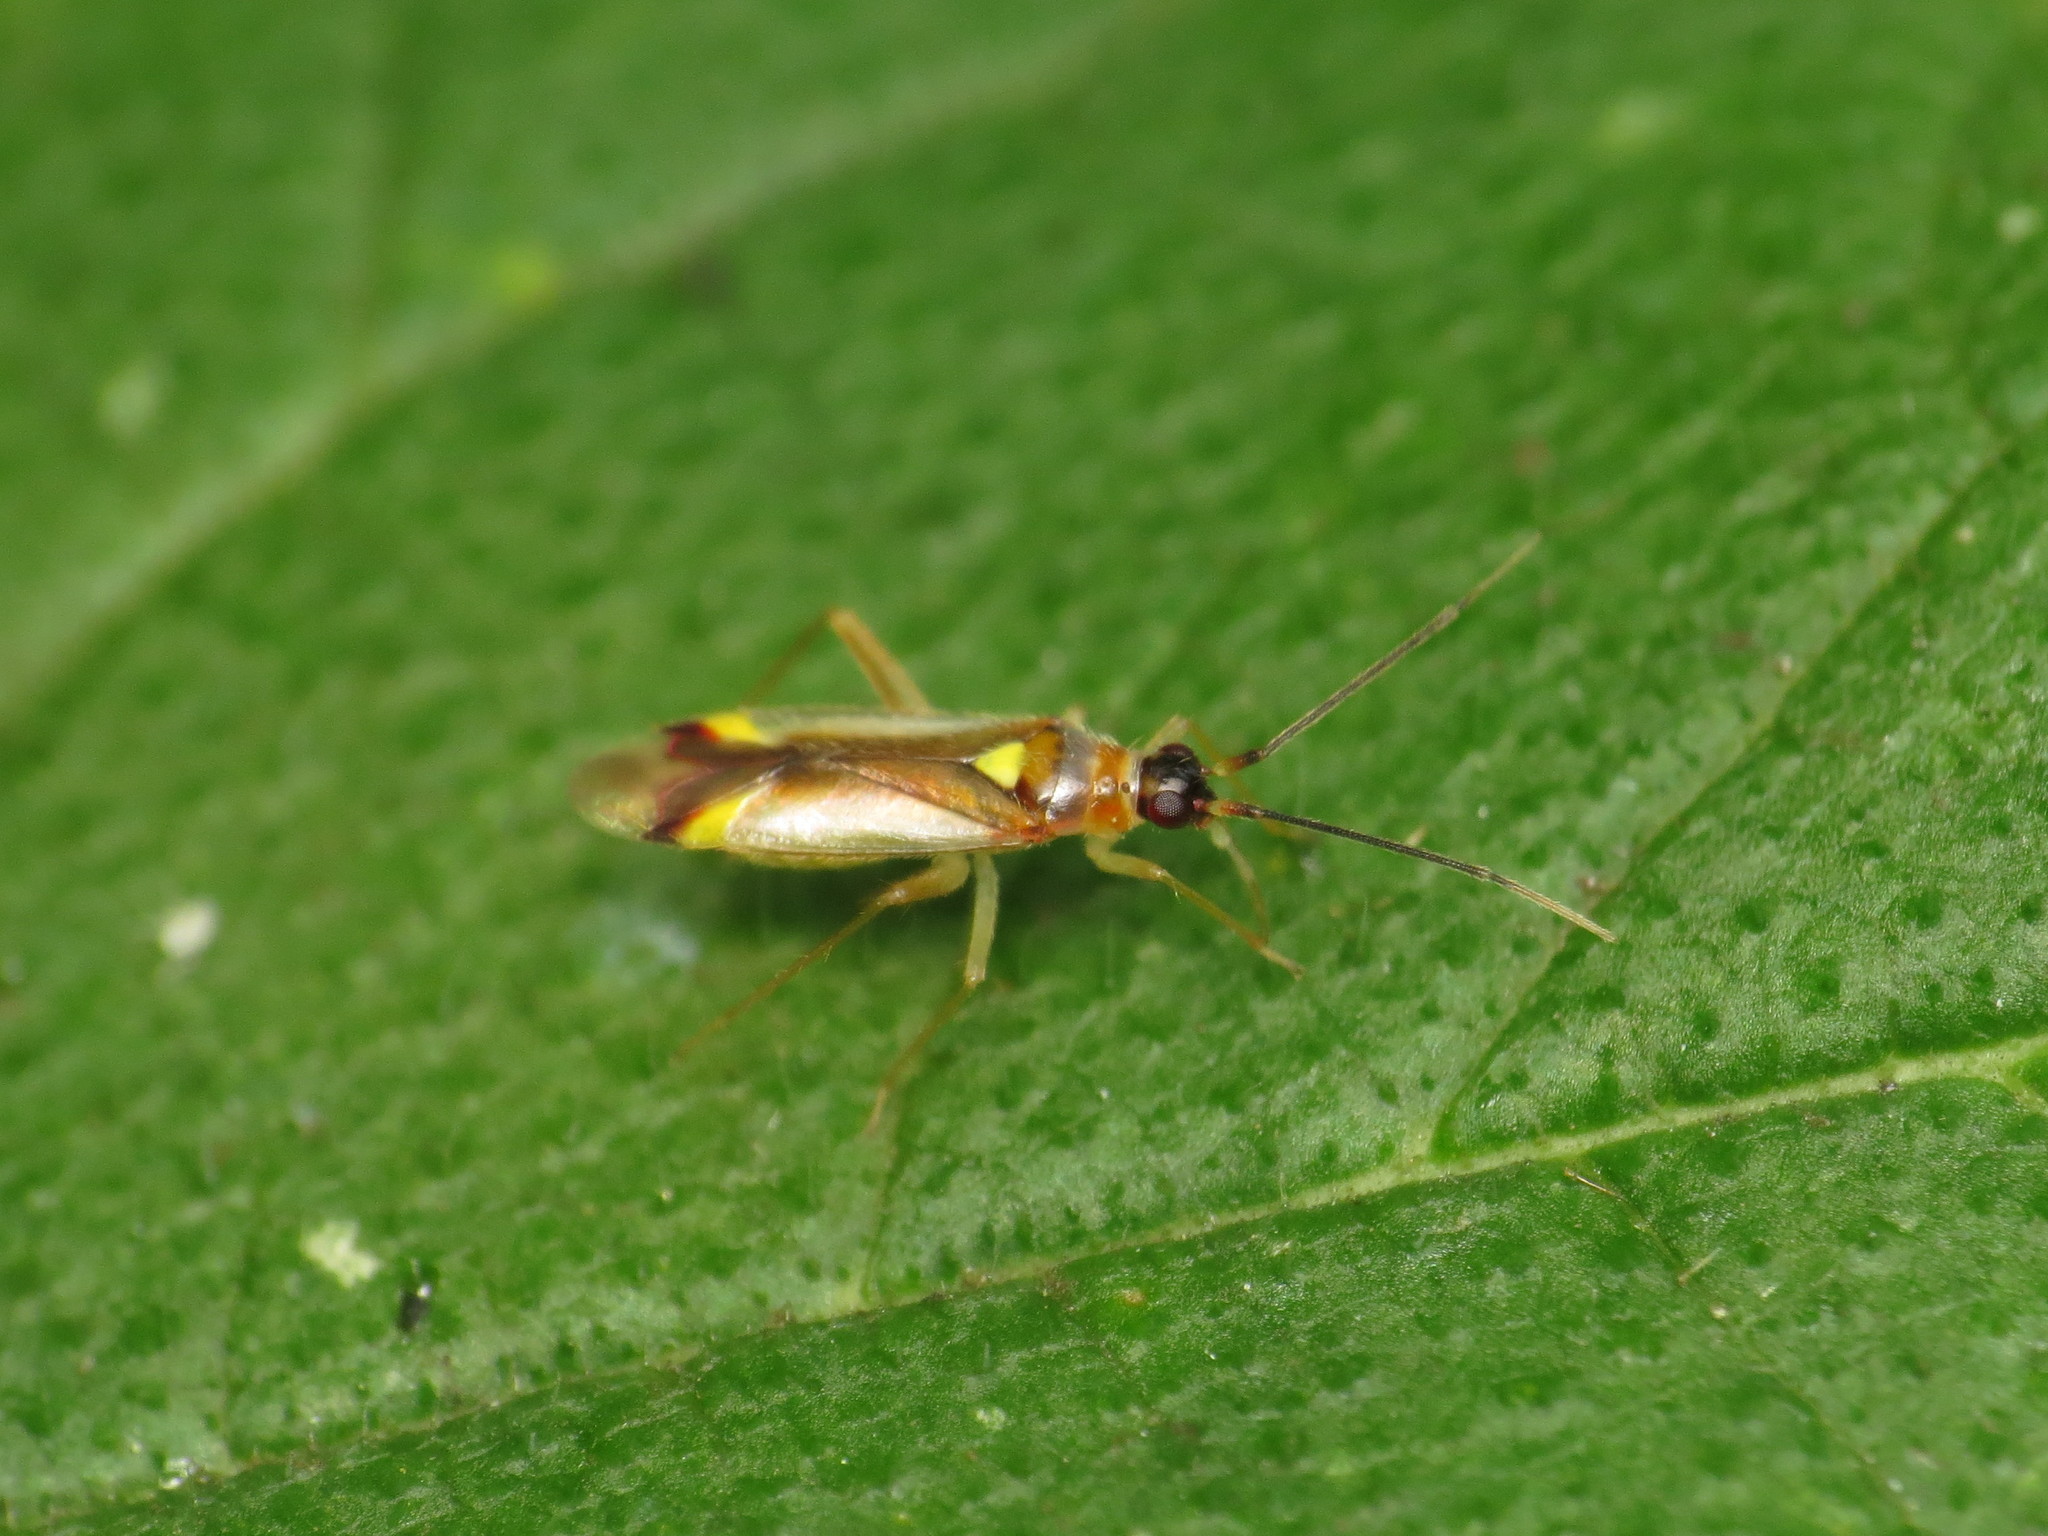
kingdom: Animalia
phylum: Arthropoda
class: Insecta
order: Hemiptera
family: Miridae
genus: Campyloneura
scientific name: Campyloneura virgula
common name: Predatory bug
